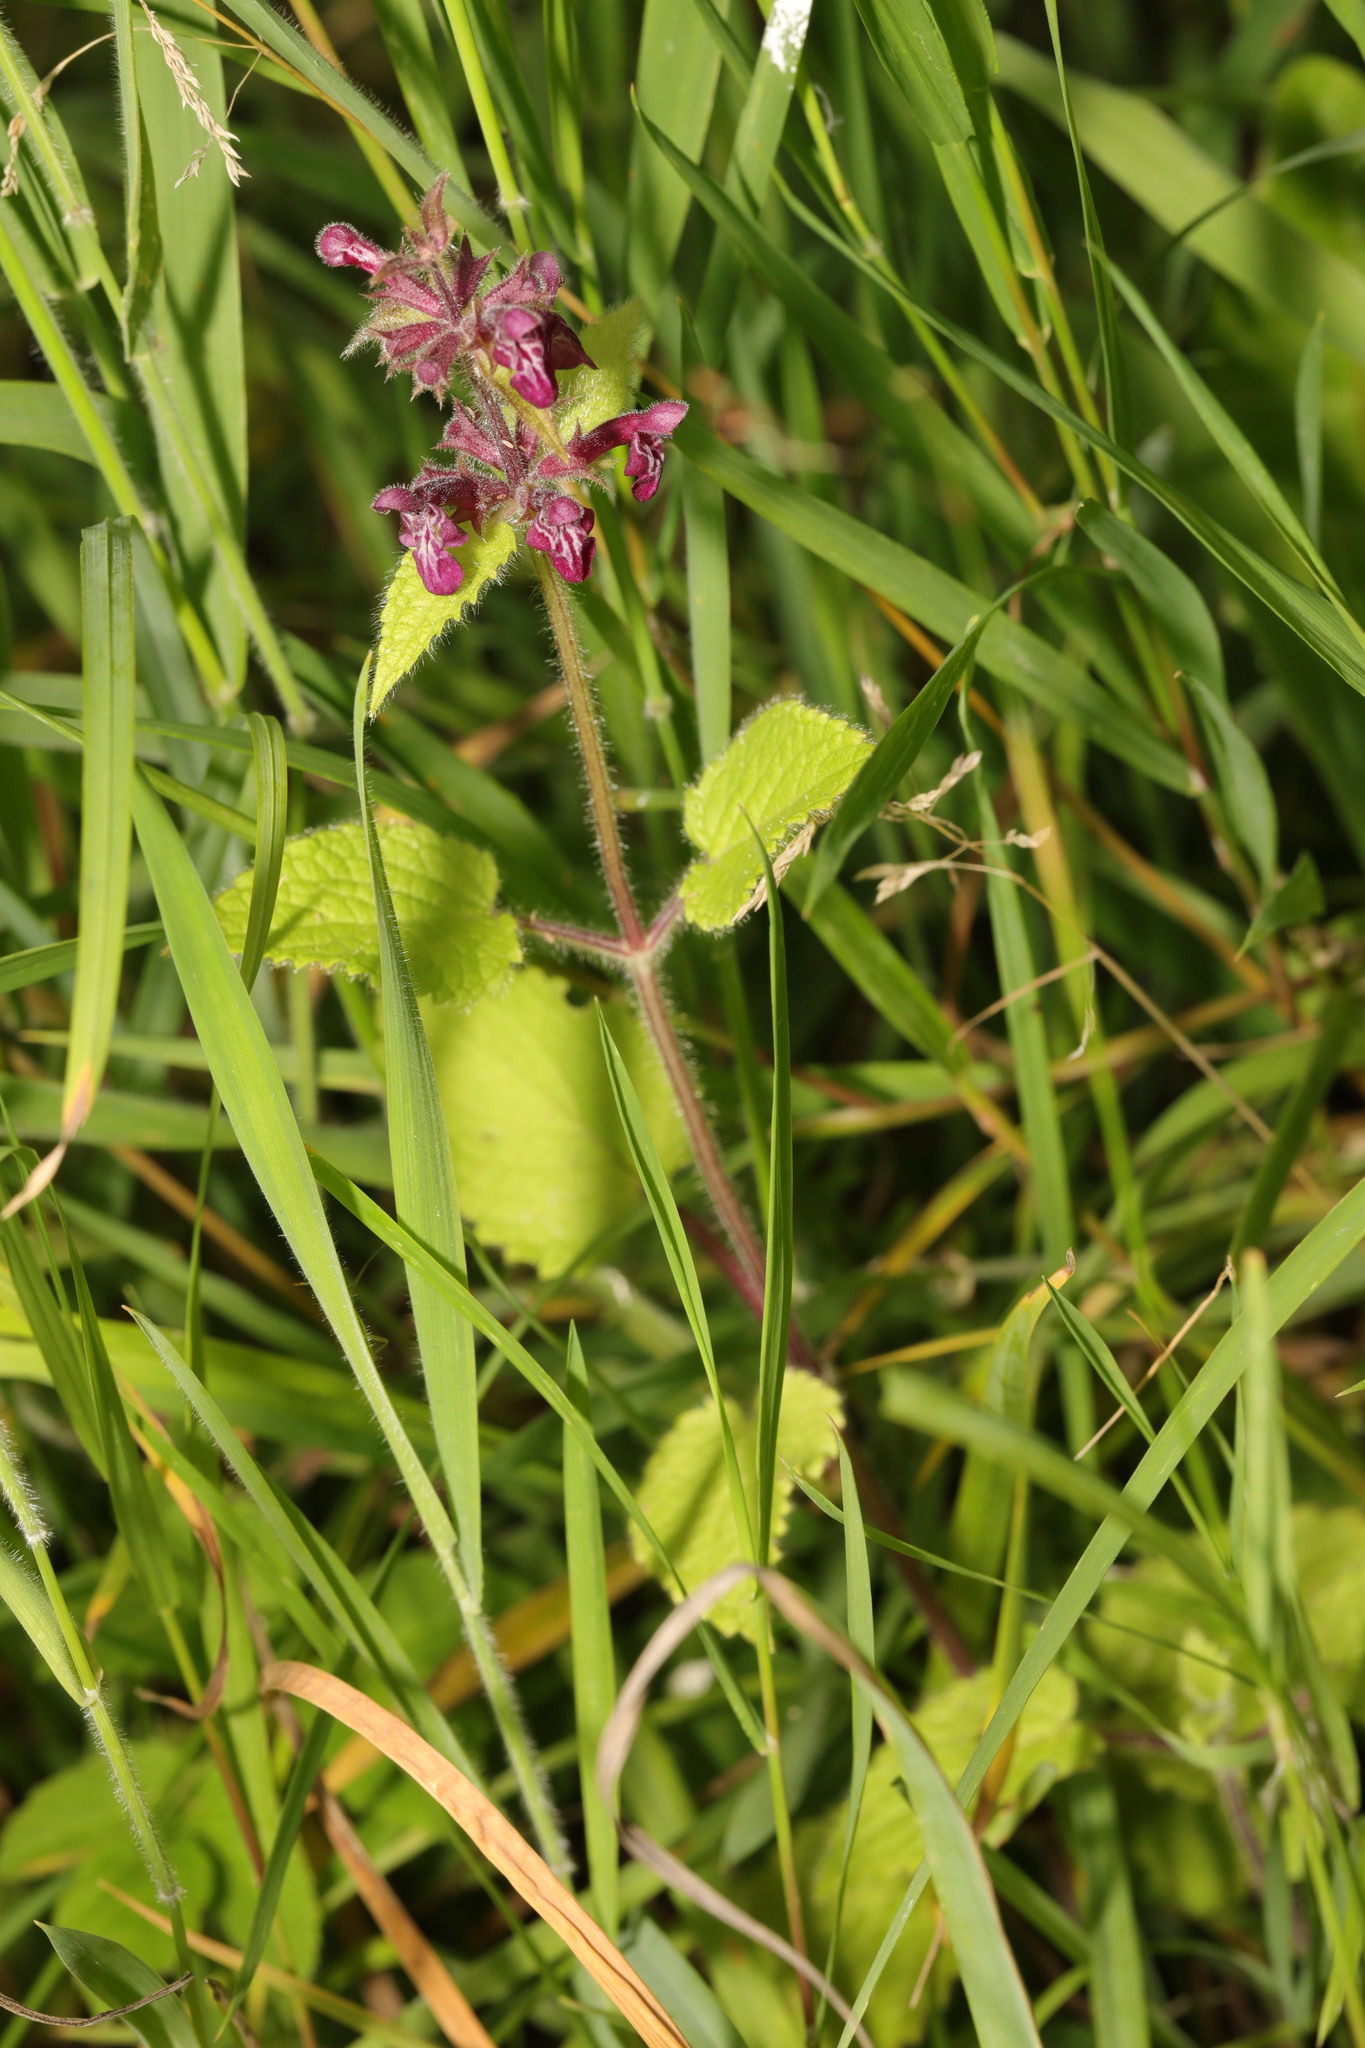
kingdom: Plantae
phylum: Tracheophyta
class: Magnoliopsida
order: Lamiales
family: Lamiaceae
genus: Stachys
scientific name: Stachys sylvatica
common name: Hedge woundwort
